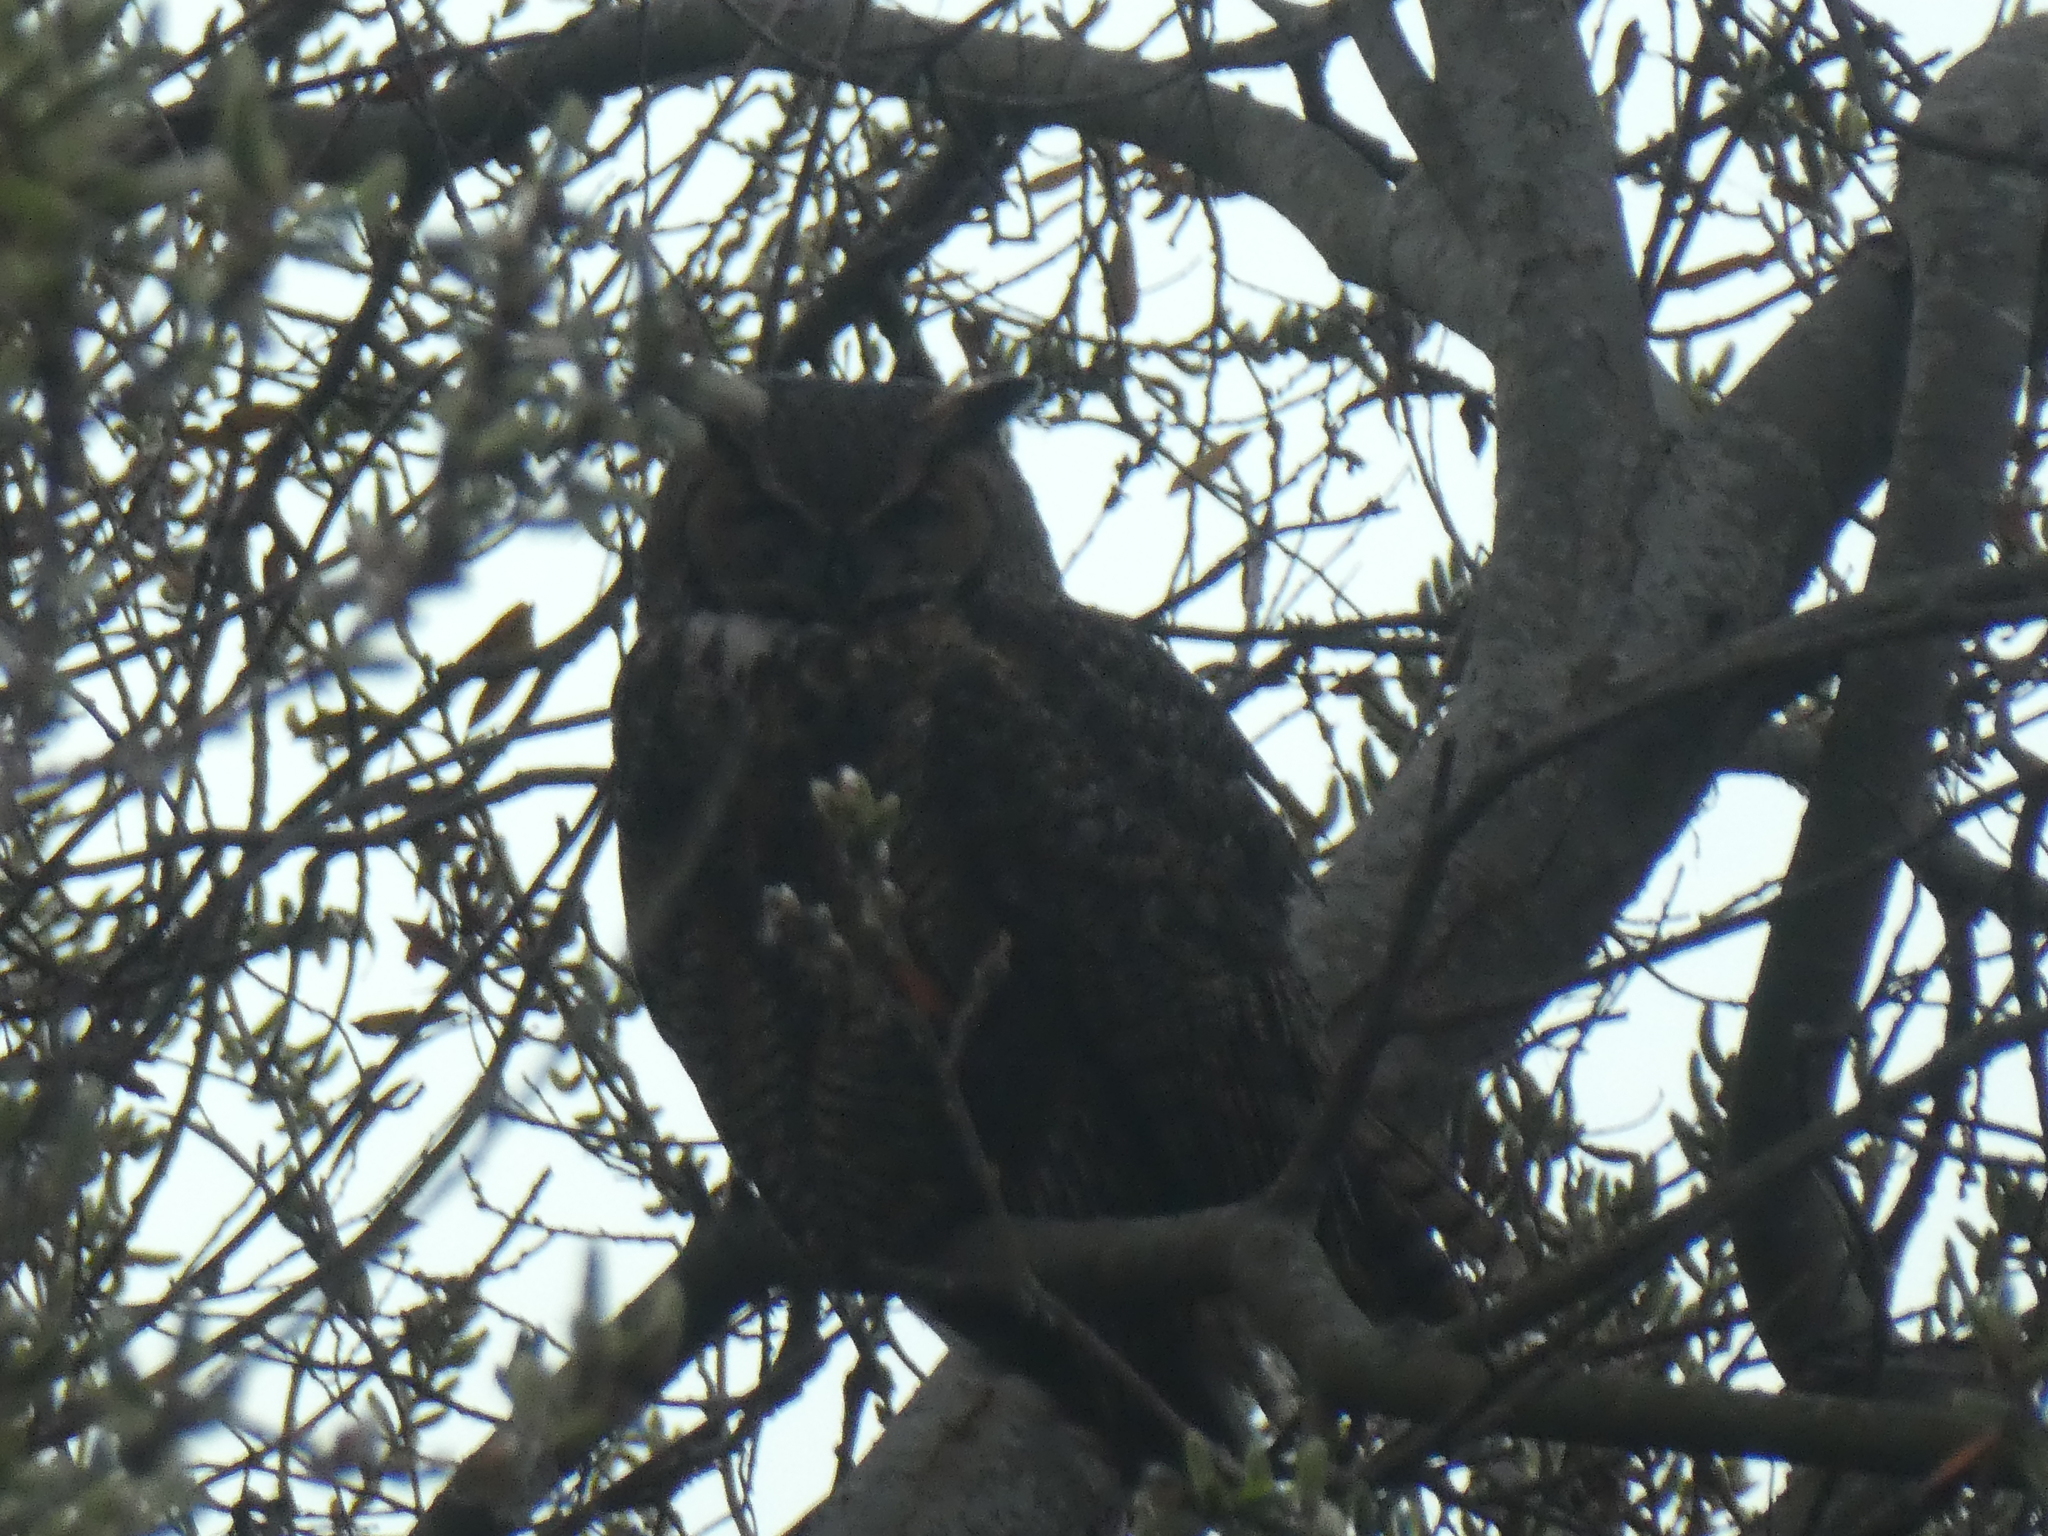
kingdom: Animalia
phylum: Chordata
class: Aves
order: Strigiformes
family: Strigidae
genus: Bubo
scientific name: Bubo virginianus
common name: Great horned owl
